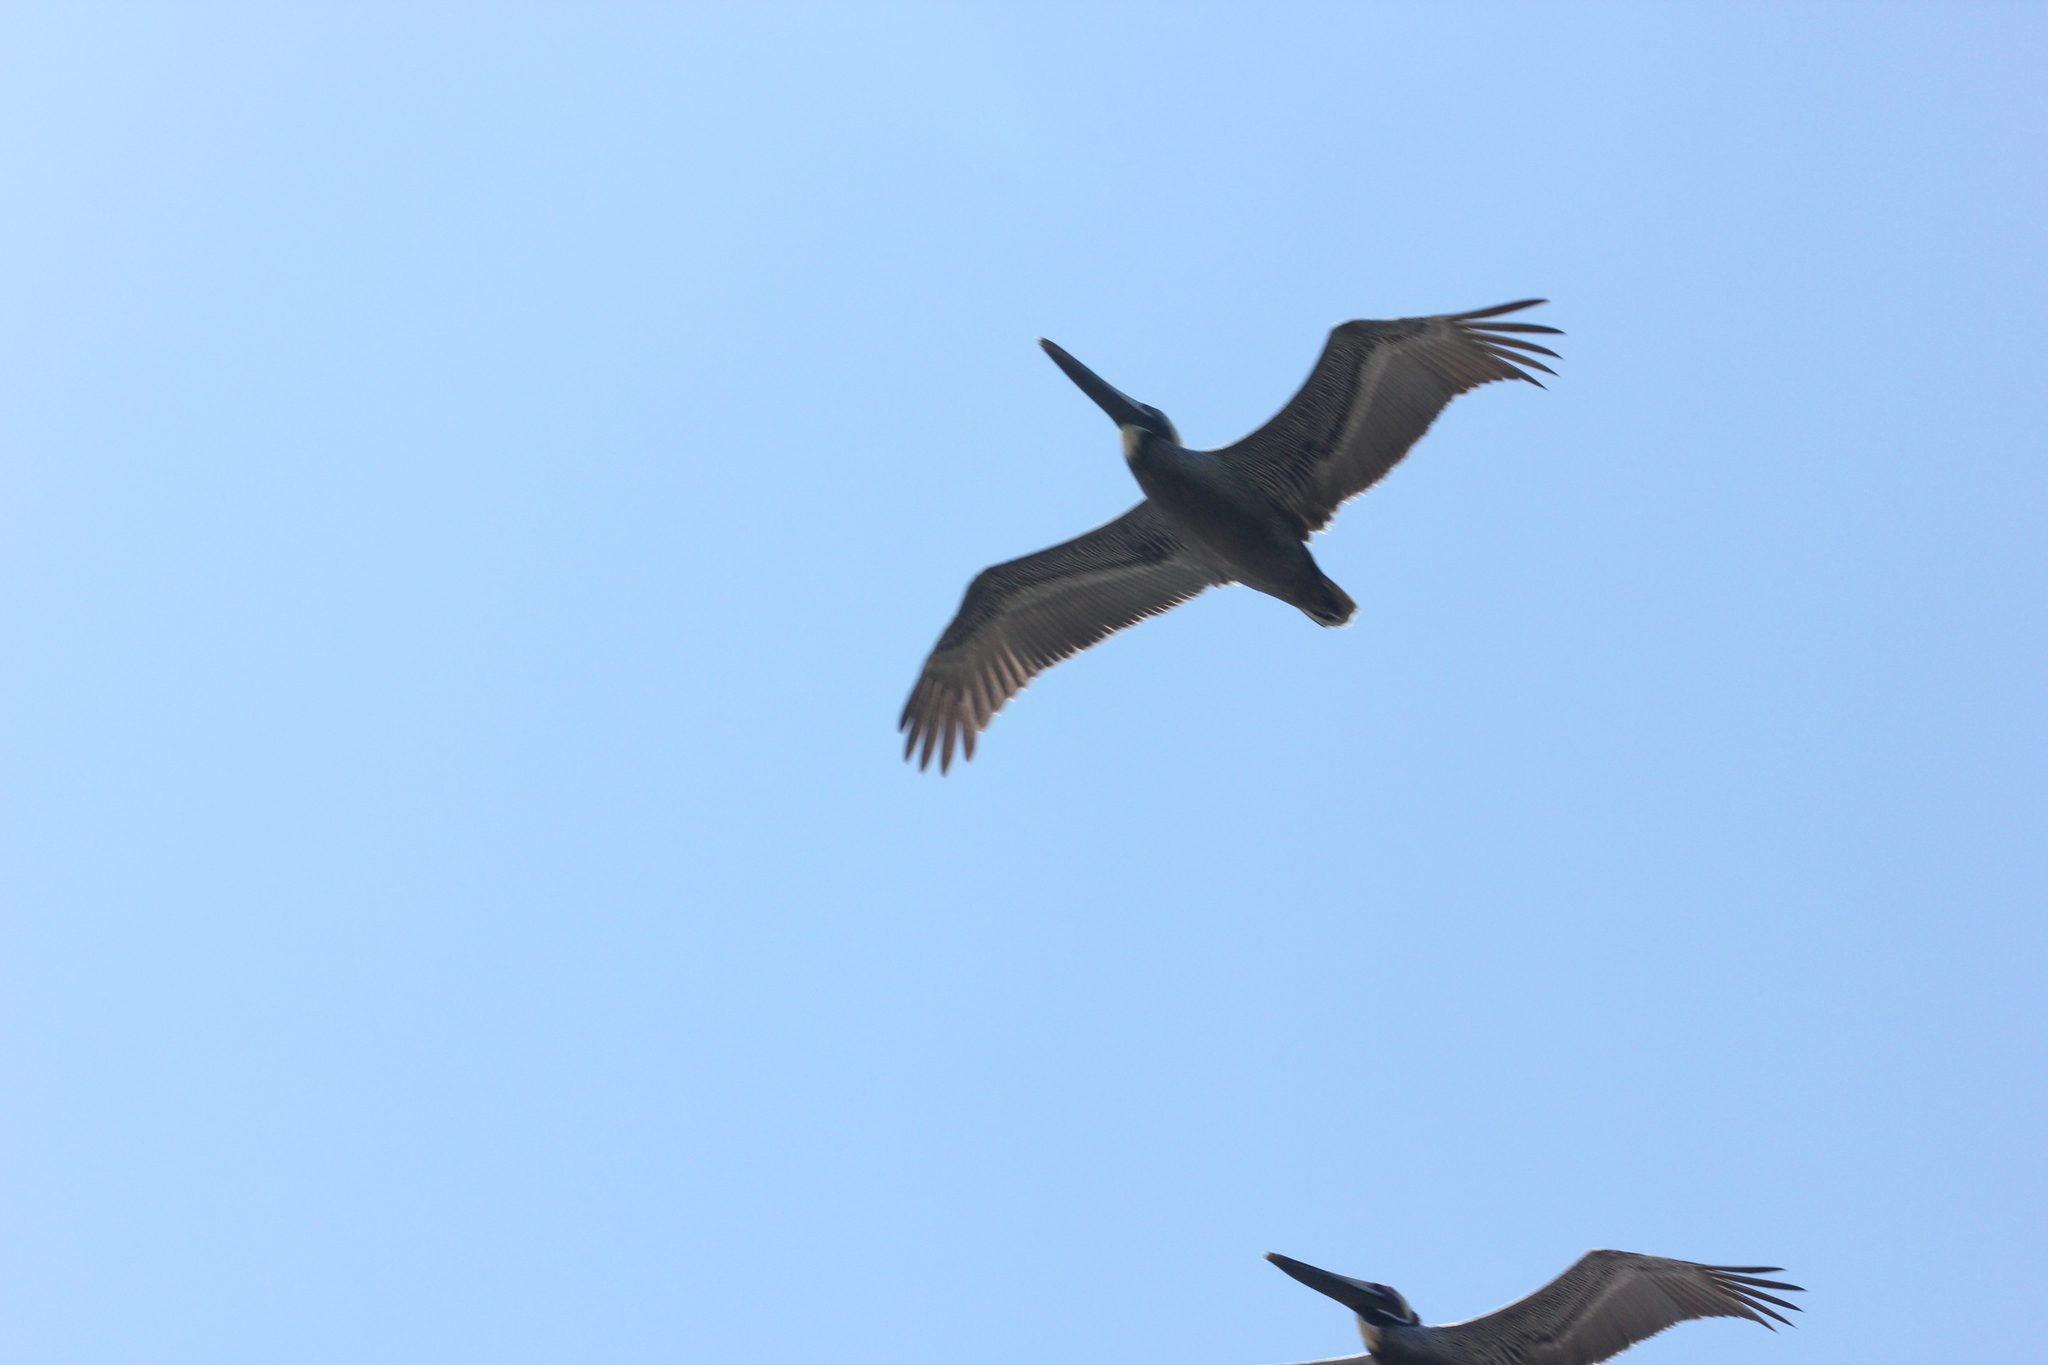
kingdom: Animalia
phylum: Chordata
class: Aves
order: Pelecaniformes
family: Pelecanidae
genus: Pelecanus
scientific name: Pelecanus occidentalis
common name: Brown pelican
